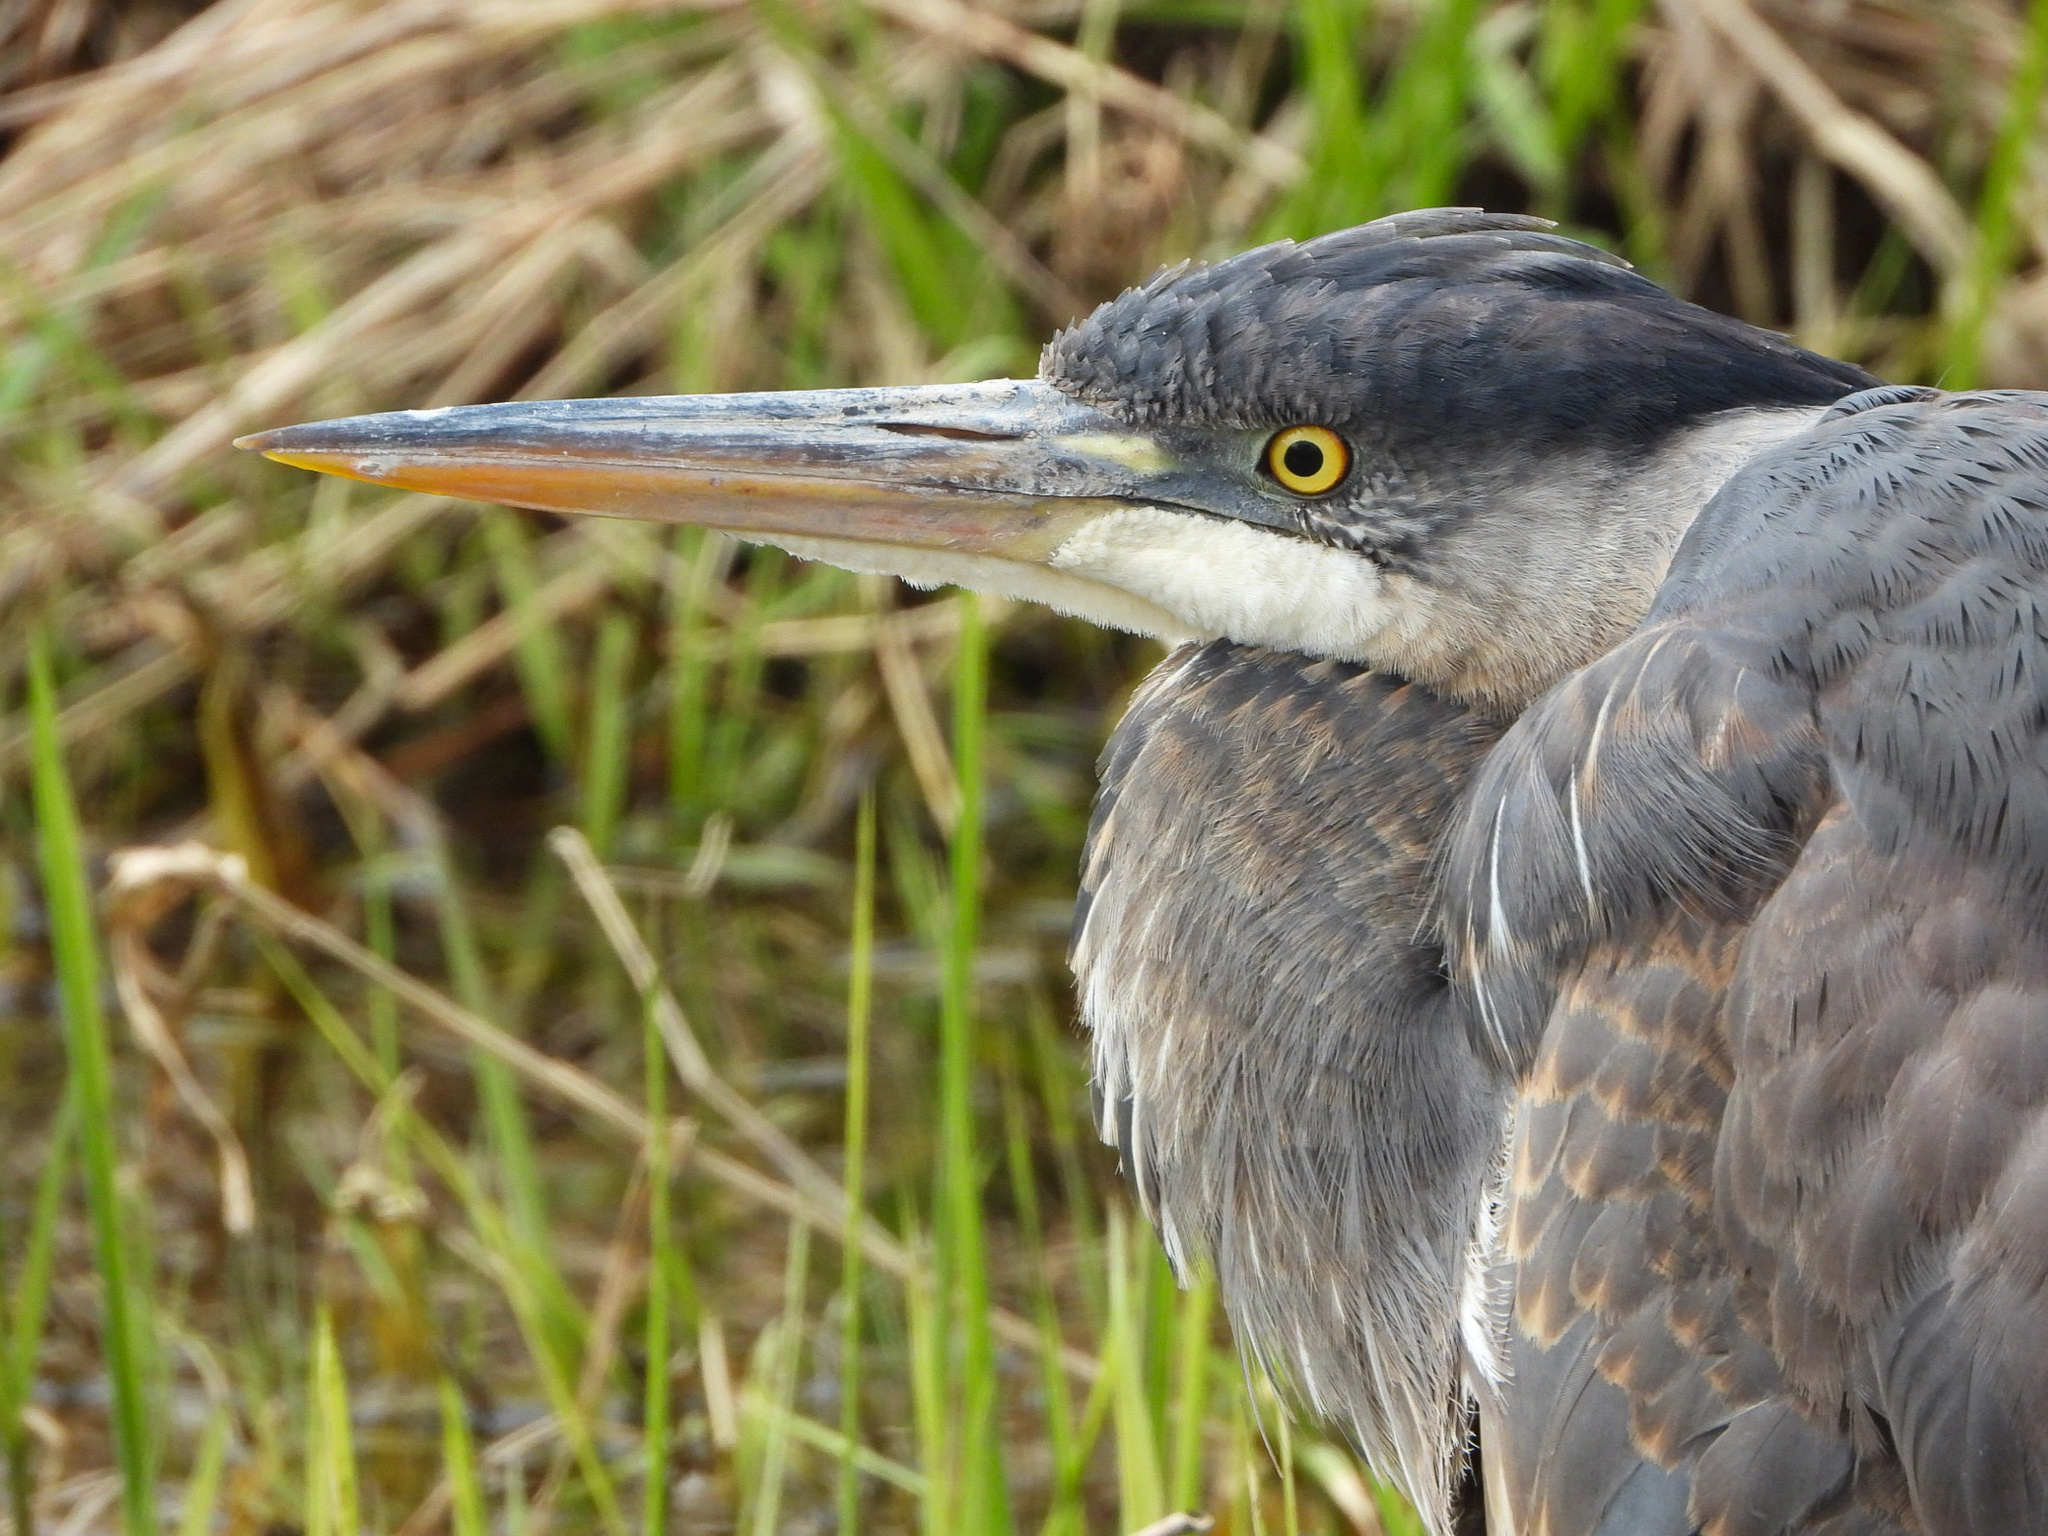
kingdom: Animalia
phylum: Chordata
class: Aves
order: Pelecaniformes
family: Ardeidae
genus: Ardea
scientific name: Ardea herodias
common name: Great blue heron
